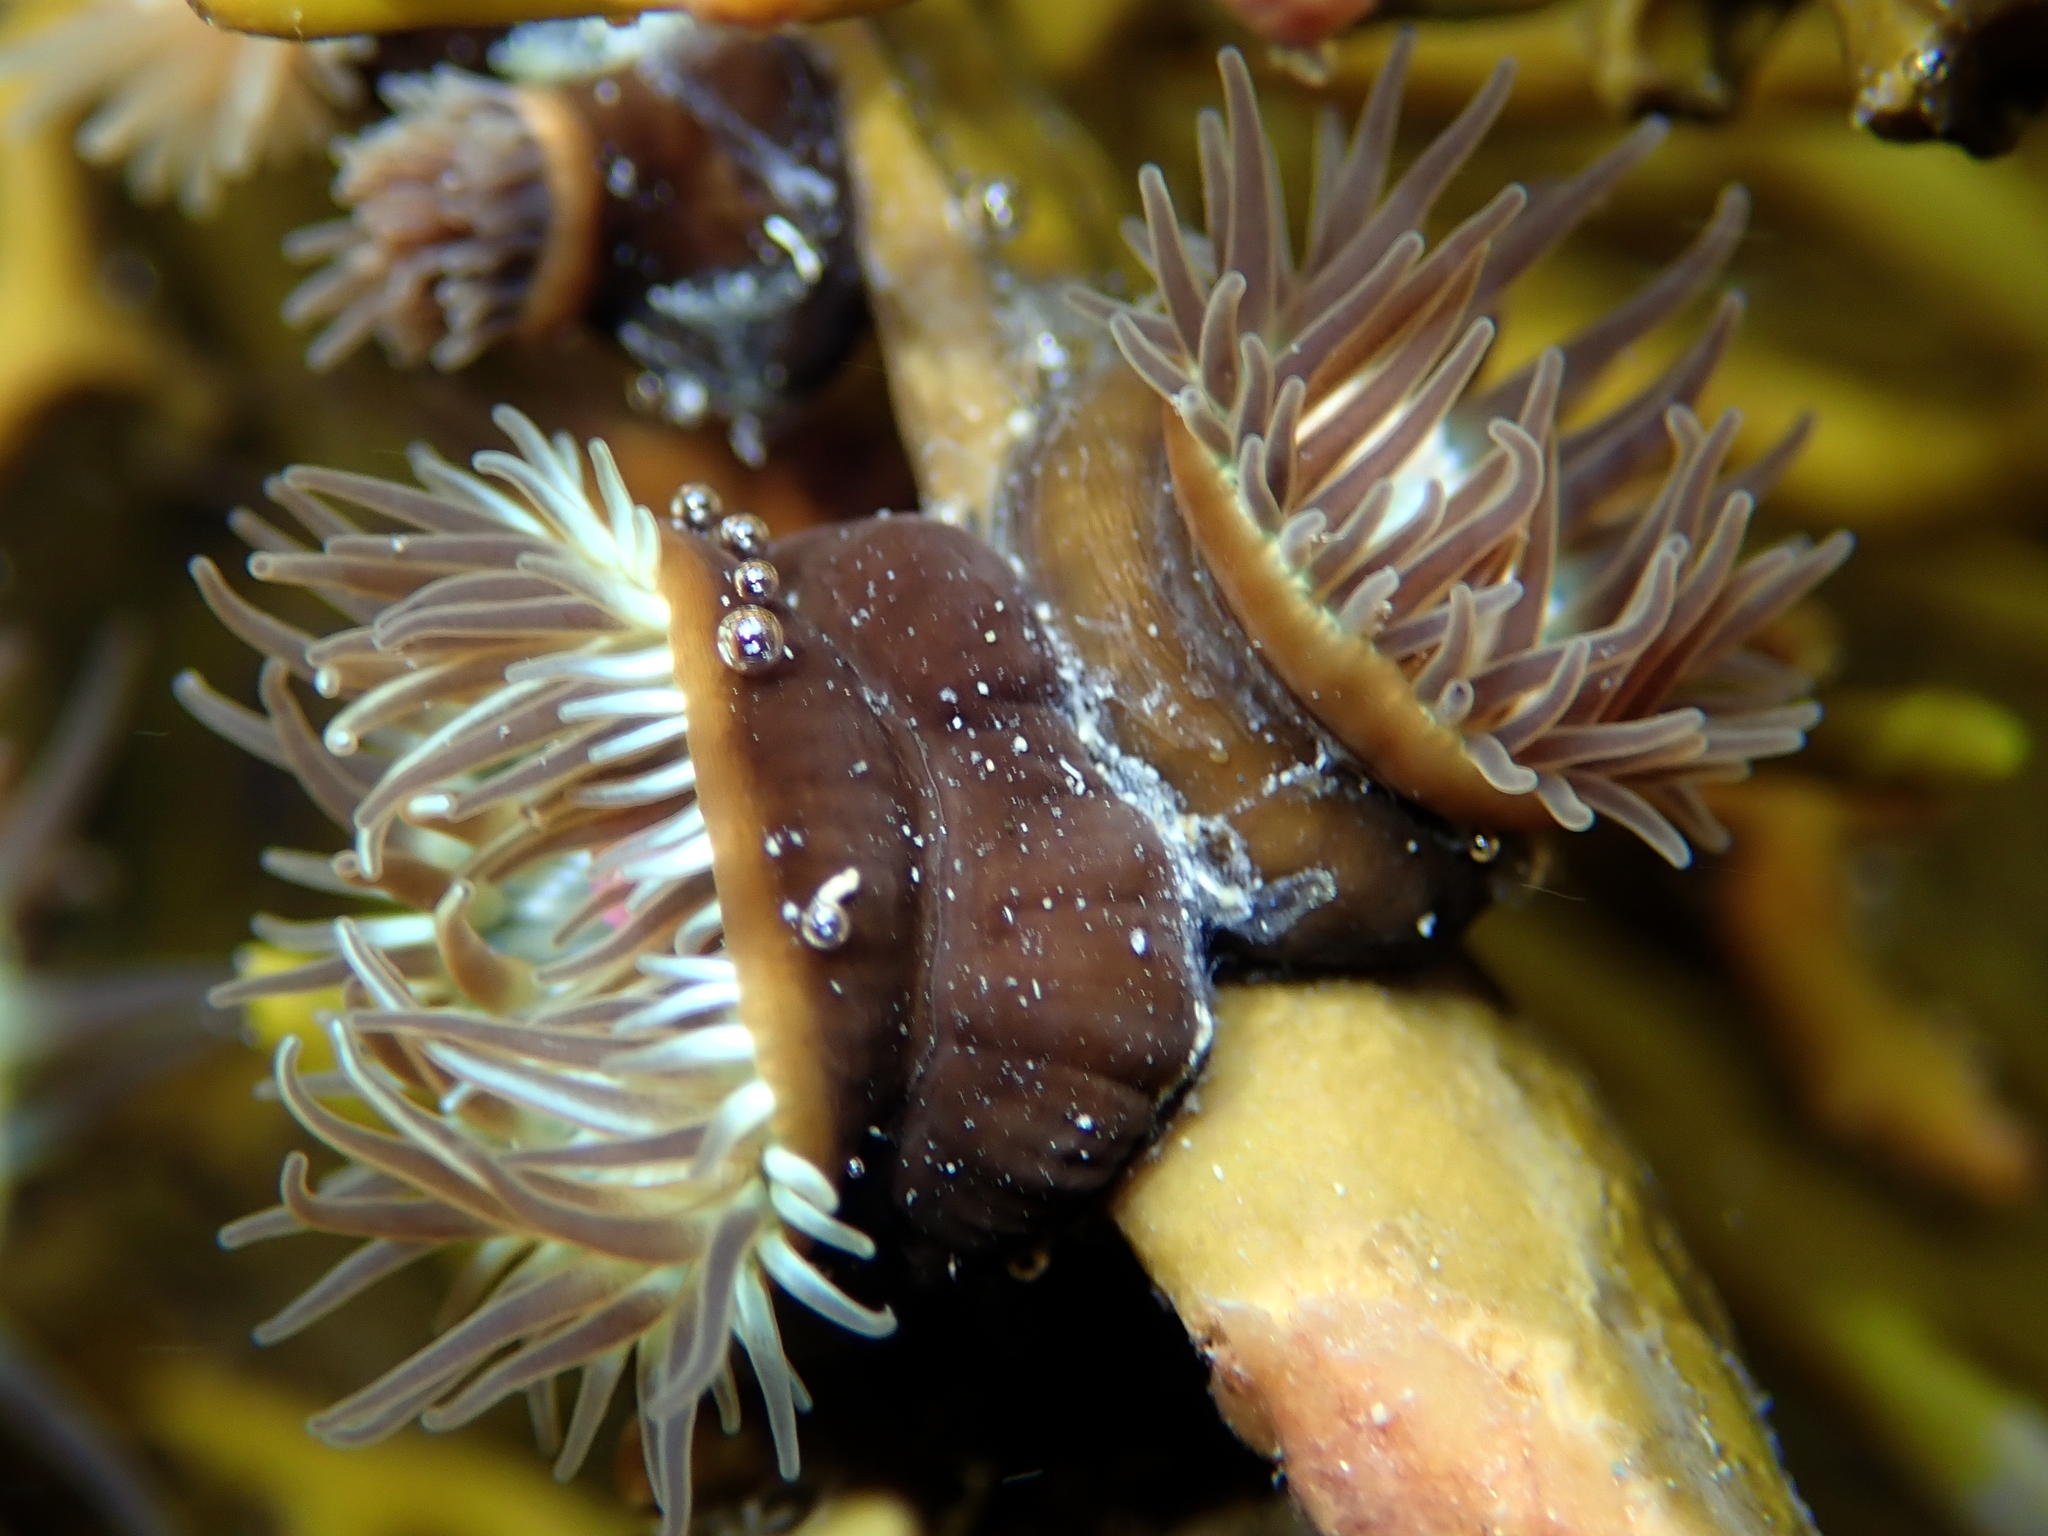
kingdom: Animalia
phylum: Cnidaria
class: Anthozoa
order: Actiniaria
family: Hormathiidae
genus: Handactis
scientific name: Handactis nutrix
